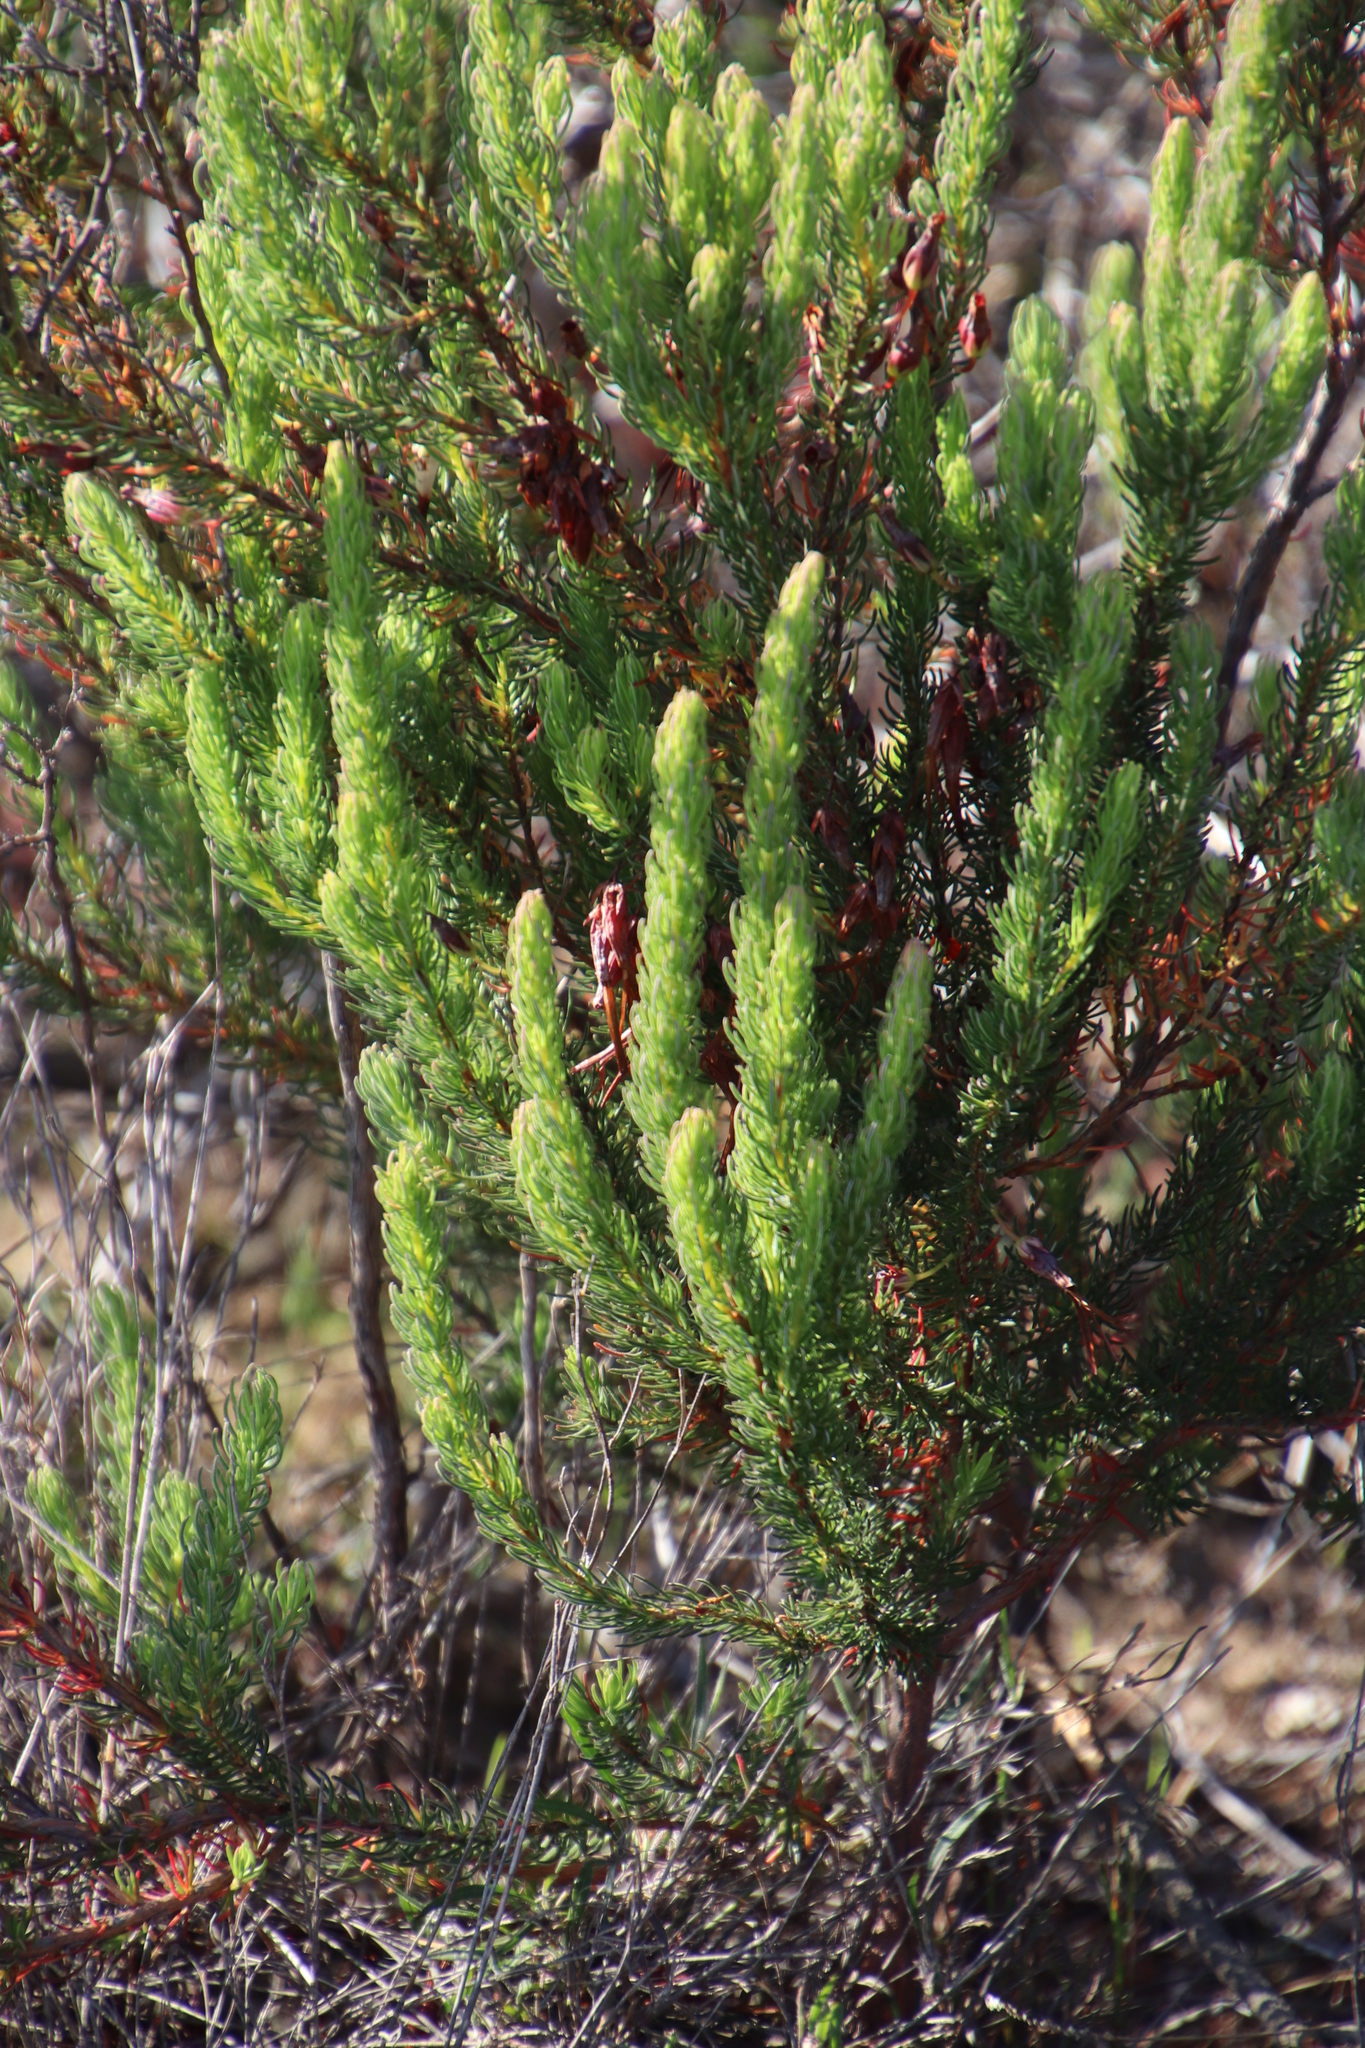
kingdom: Plantae
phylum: Tracheophyta
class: Magnoliopsida
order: Ericales
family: Ericaceae
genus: Erica
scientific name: Erica plukenetii
